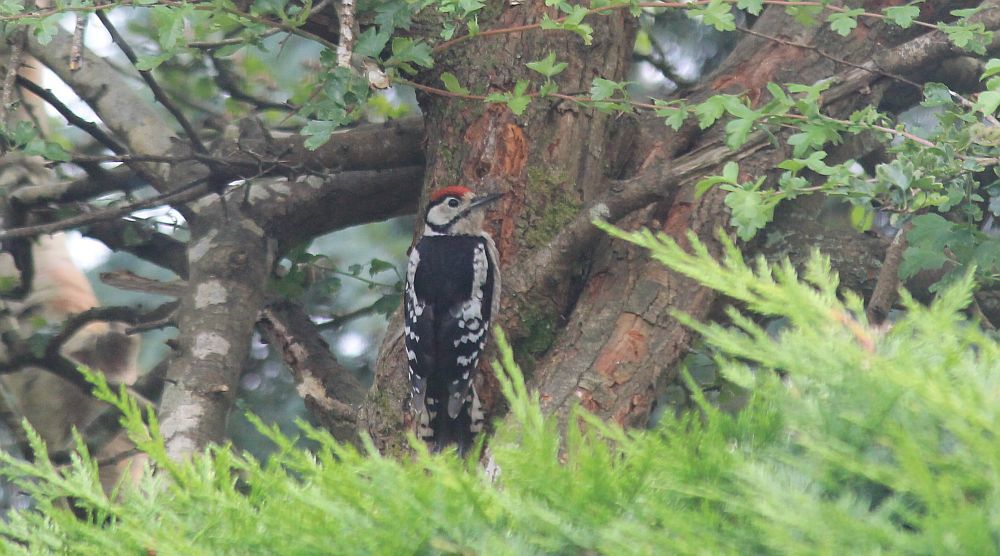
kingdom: Animalia
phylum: Chordata
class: Aves
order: Piciformes
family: Picidae
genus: Dendrocopos
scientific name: Dendrocopos major
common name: Great spotted woodpecker
